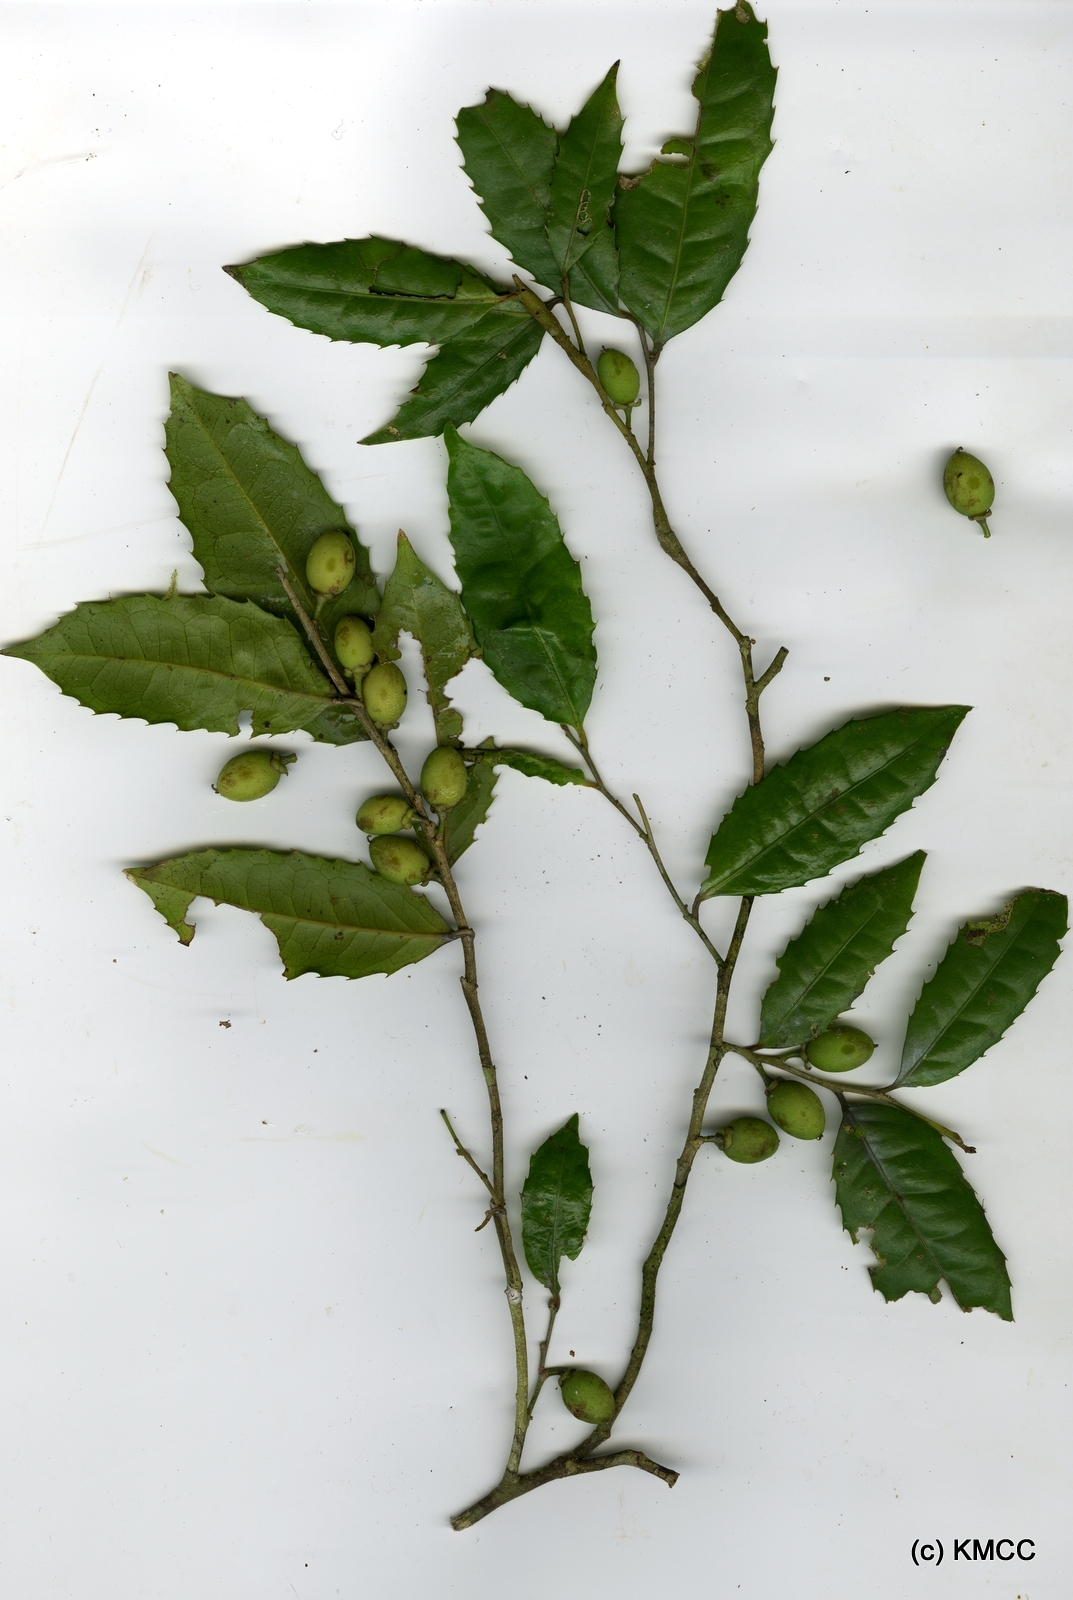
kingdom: Plantae
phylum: Tracheophyta
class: Magnoliopsida
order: Malpighiales
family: Putranjivaceae
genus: Drypetes
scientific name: Drypetes madagascariensis
